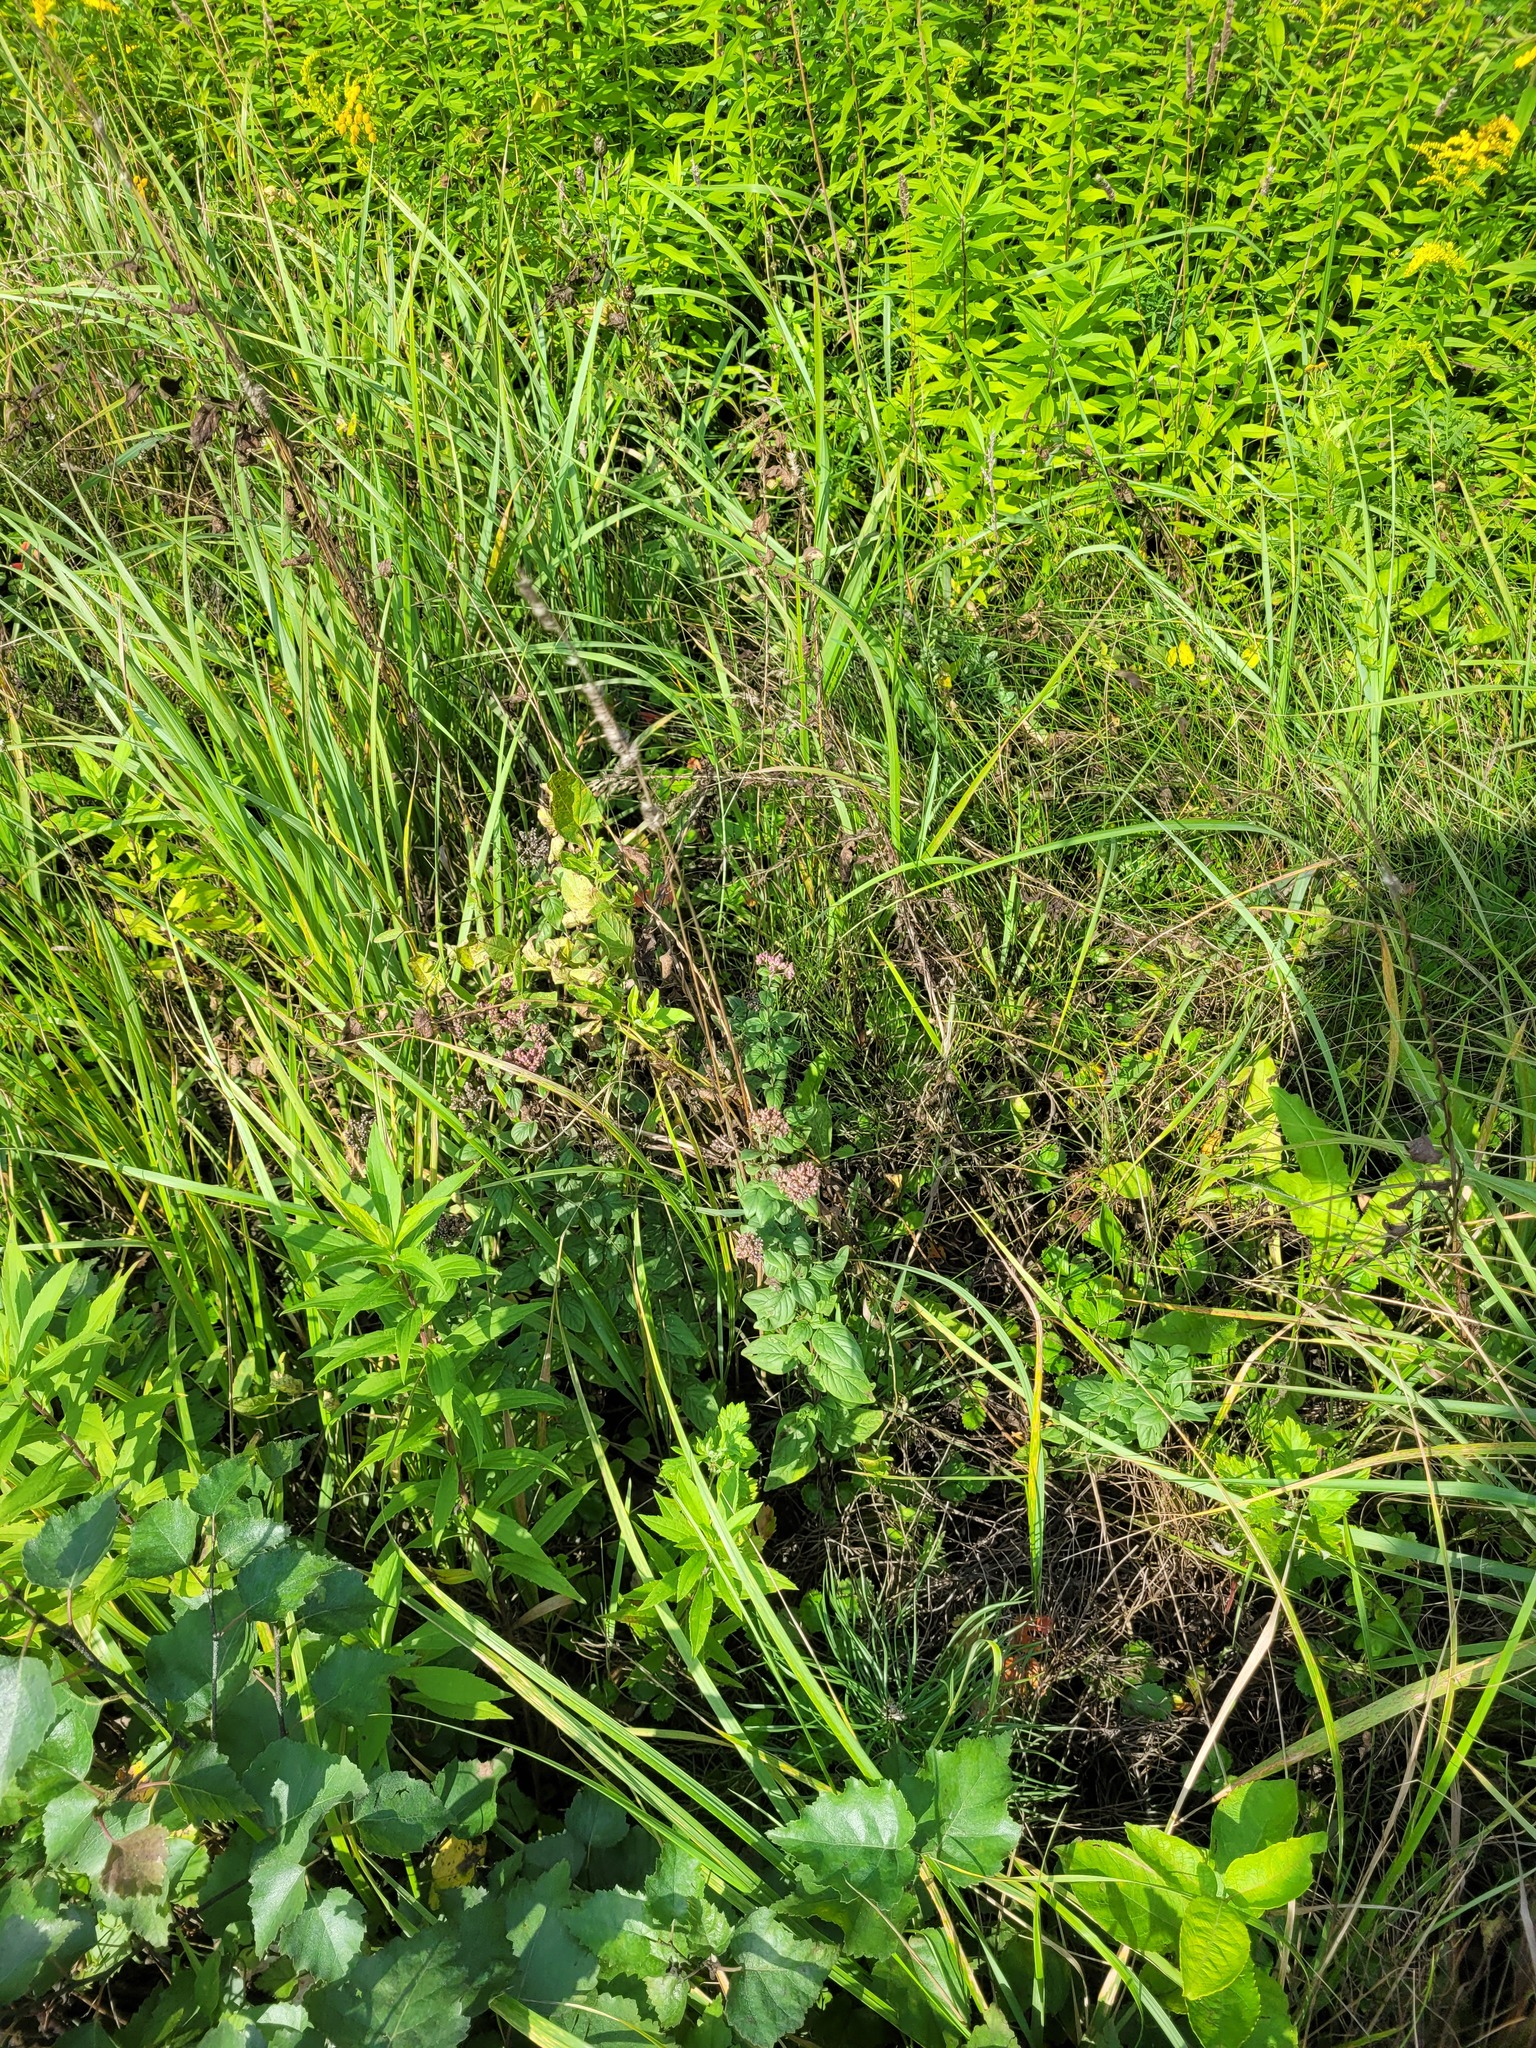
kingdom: Plantae
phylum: Tracheophyta
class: Magnoliopsida
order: Lamiales
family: Lamiaceae
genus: Origanum
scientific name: Origanum vulgare
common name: Wild marjoram
